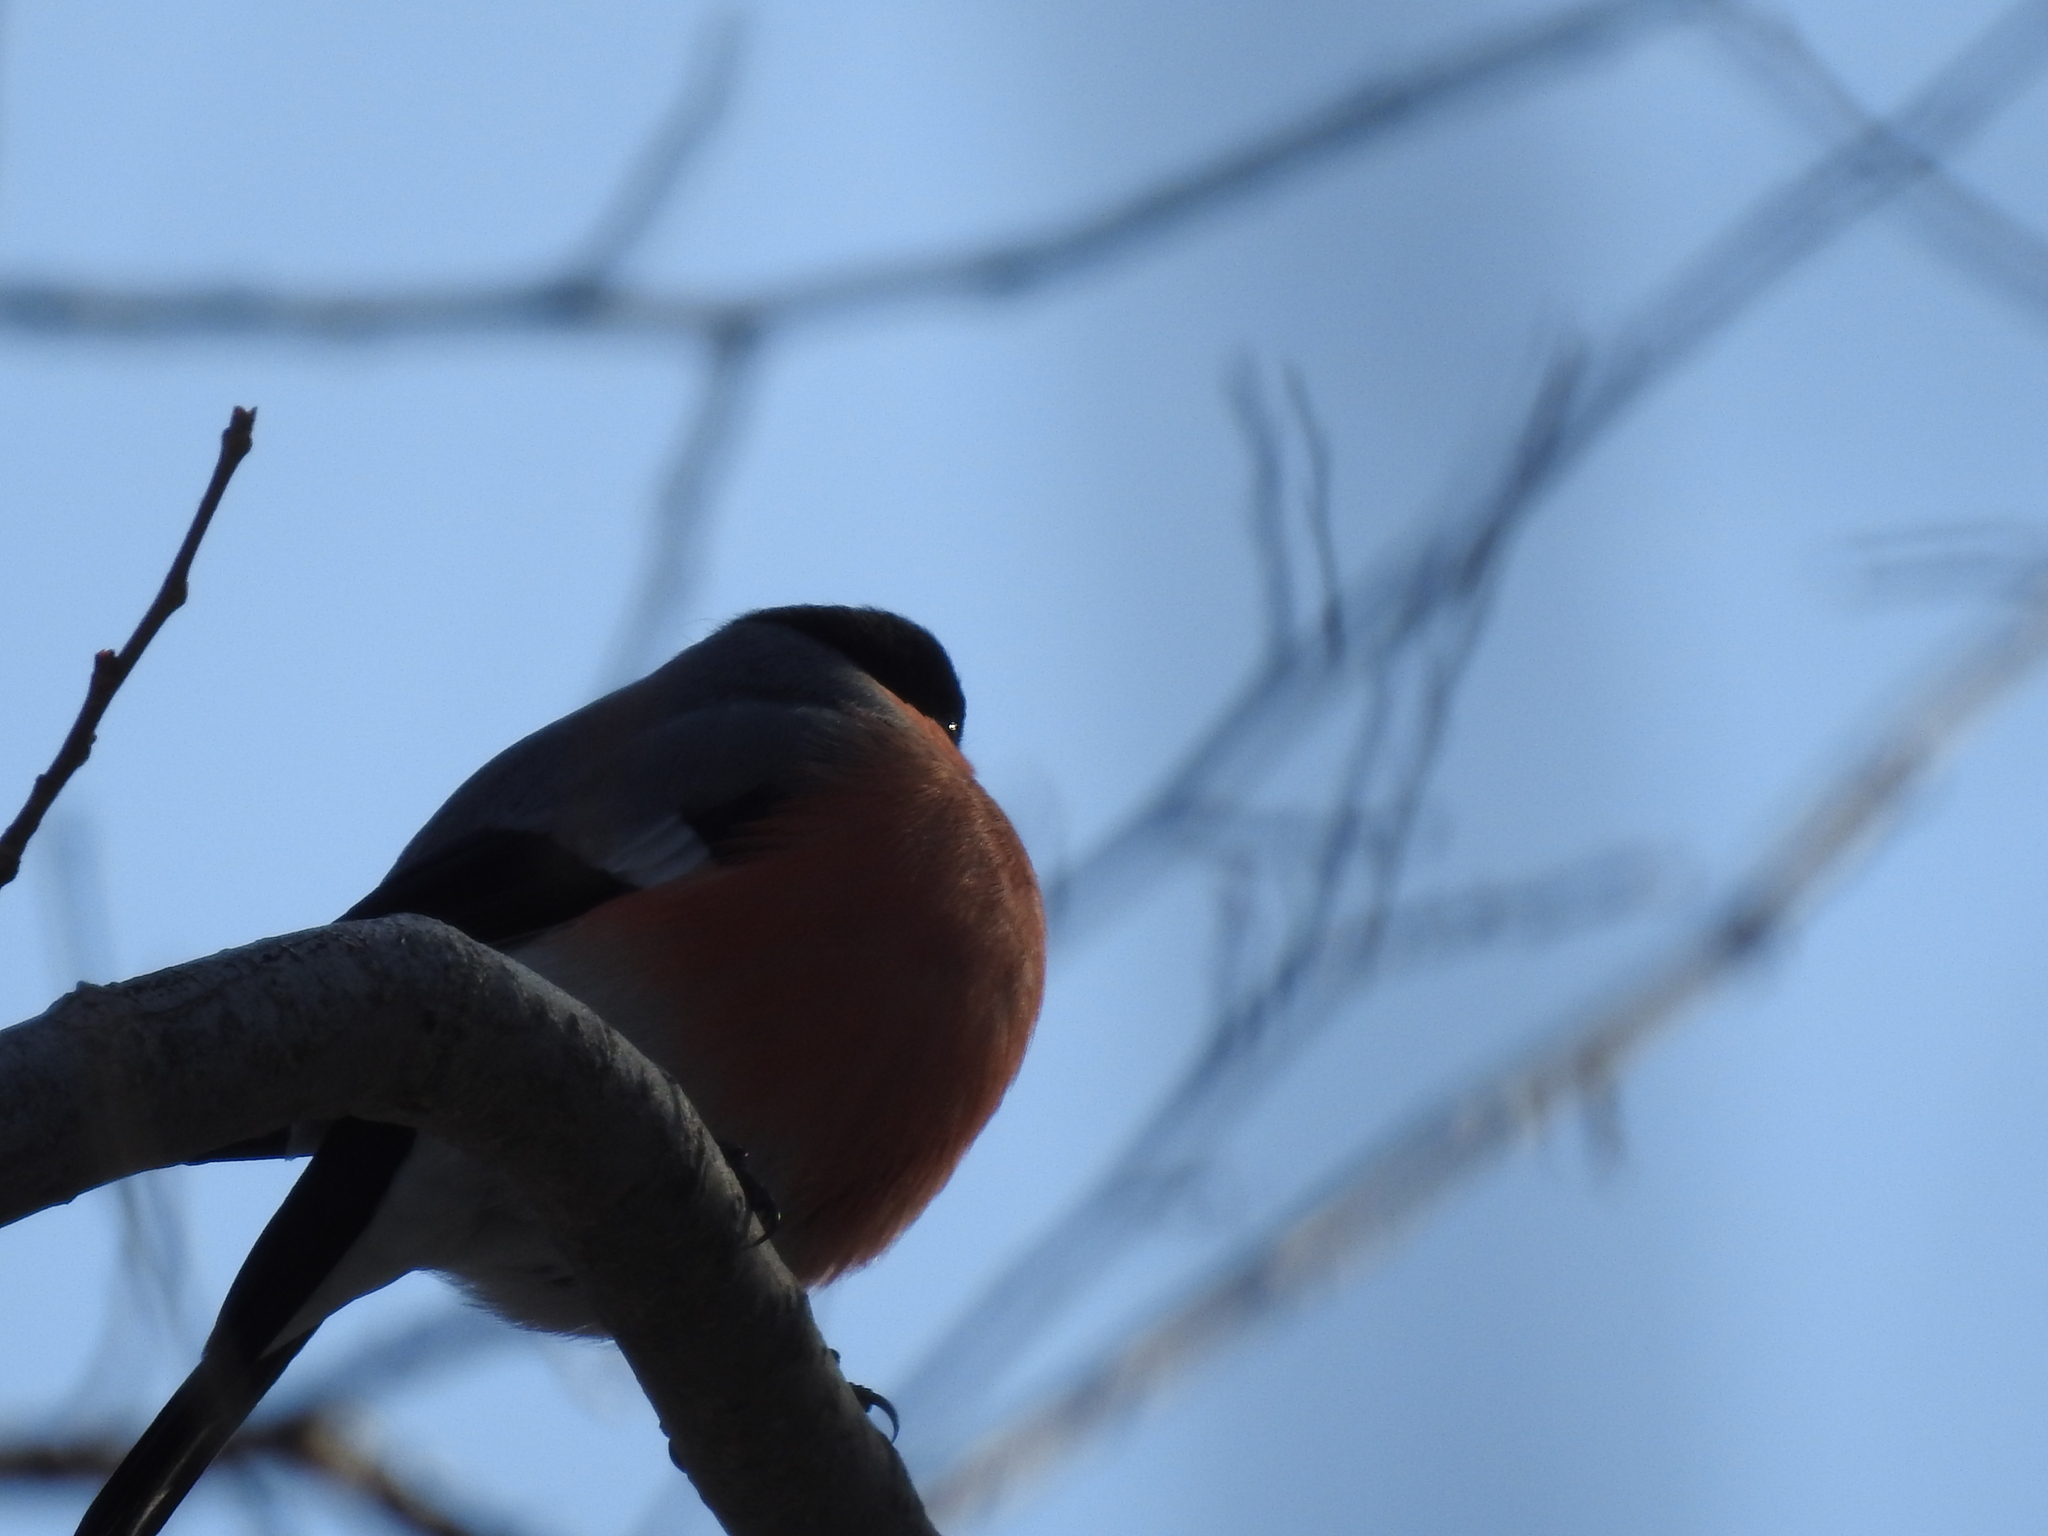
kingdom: Animalia
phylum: Chordata
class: Aves
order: Passeriformes
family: Fringillidae
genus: Pyrrhula
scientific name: Pyrrhula pyrrhula
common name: Eurasian bullfinch
